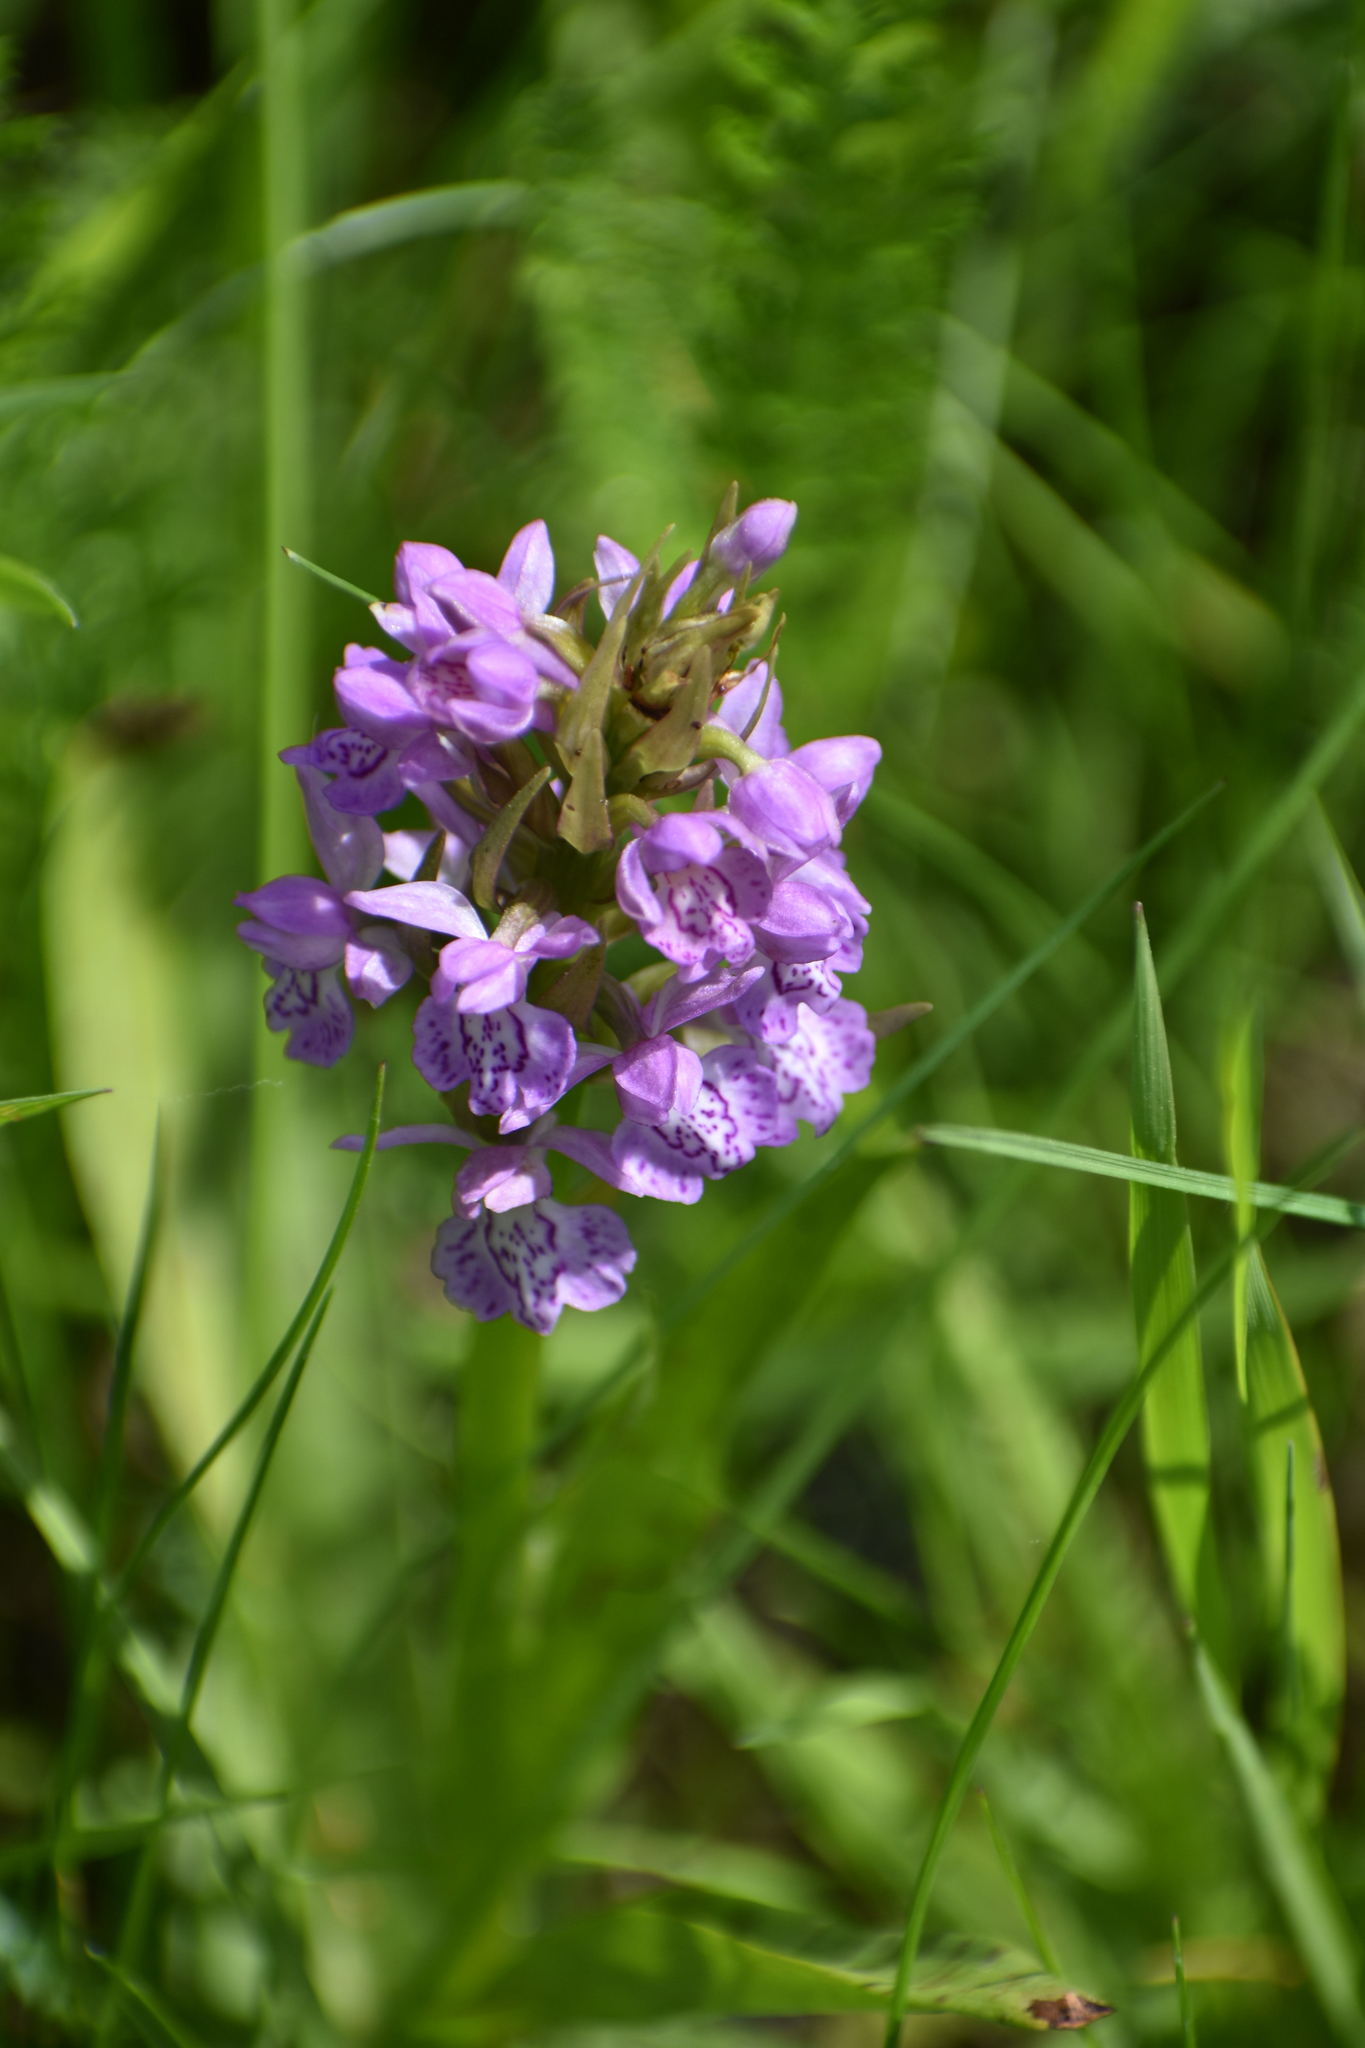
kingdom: Plantae
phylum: Tracheophyta
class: Liliopsida
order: Asparagales
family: Orchidaceae
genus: Dactylorhiza
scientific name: Dactylorhiza majalis
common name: Marsh orchid
